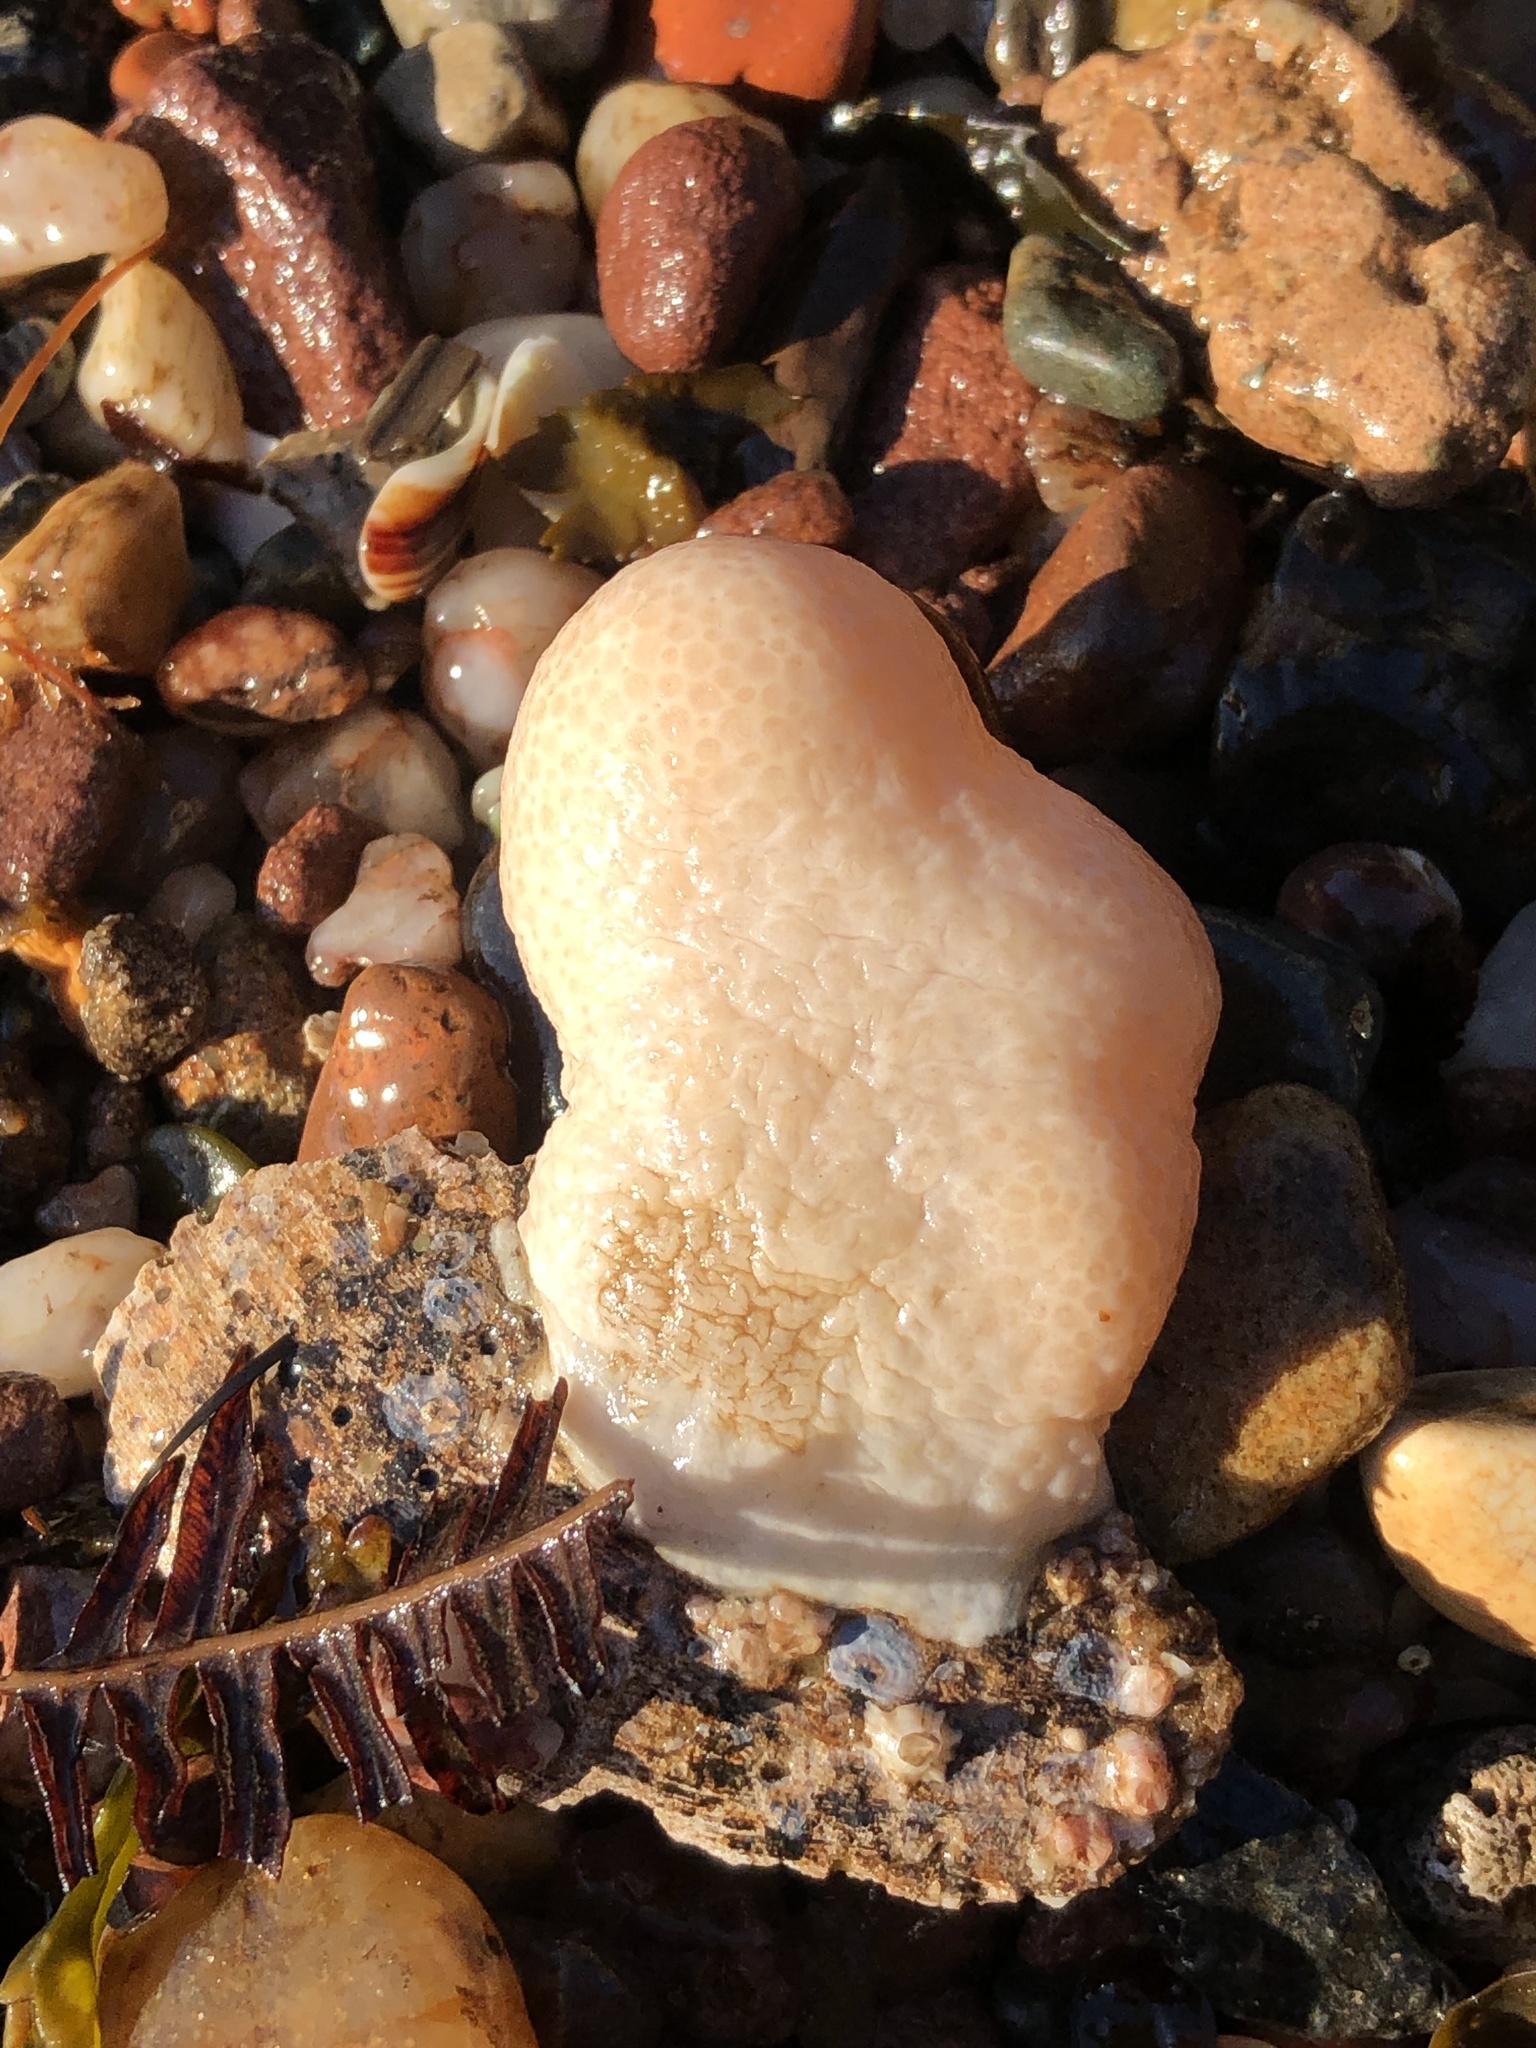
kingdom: Animalia
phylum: Cnidaria
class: Anthozoa
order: Malacalcyonacea
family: Alcyoniidae
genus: Alcyonium
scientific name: Alcyonium digitatum
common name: Dead man's fingers
